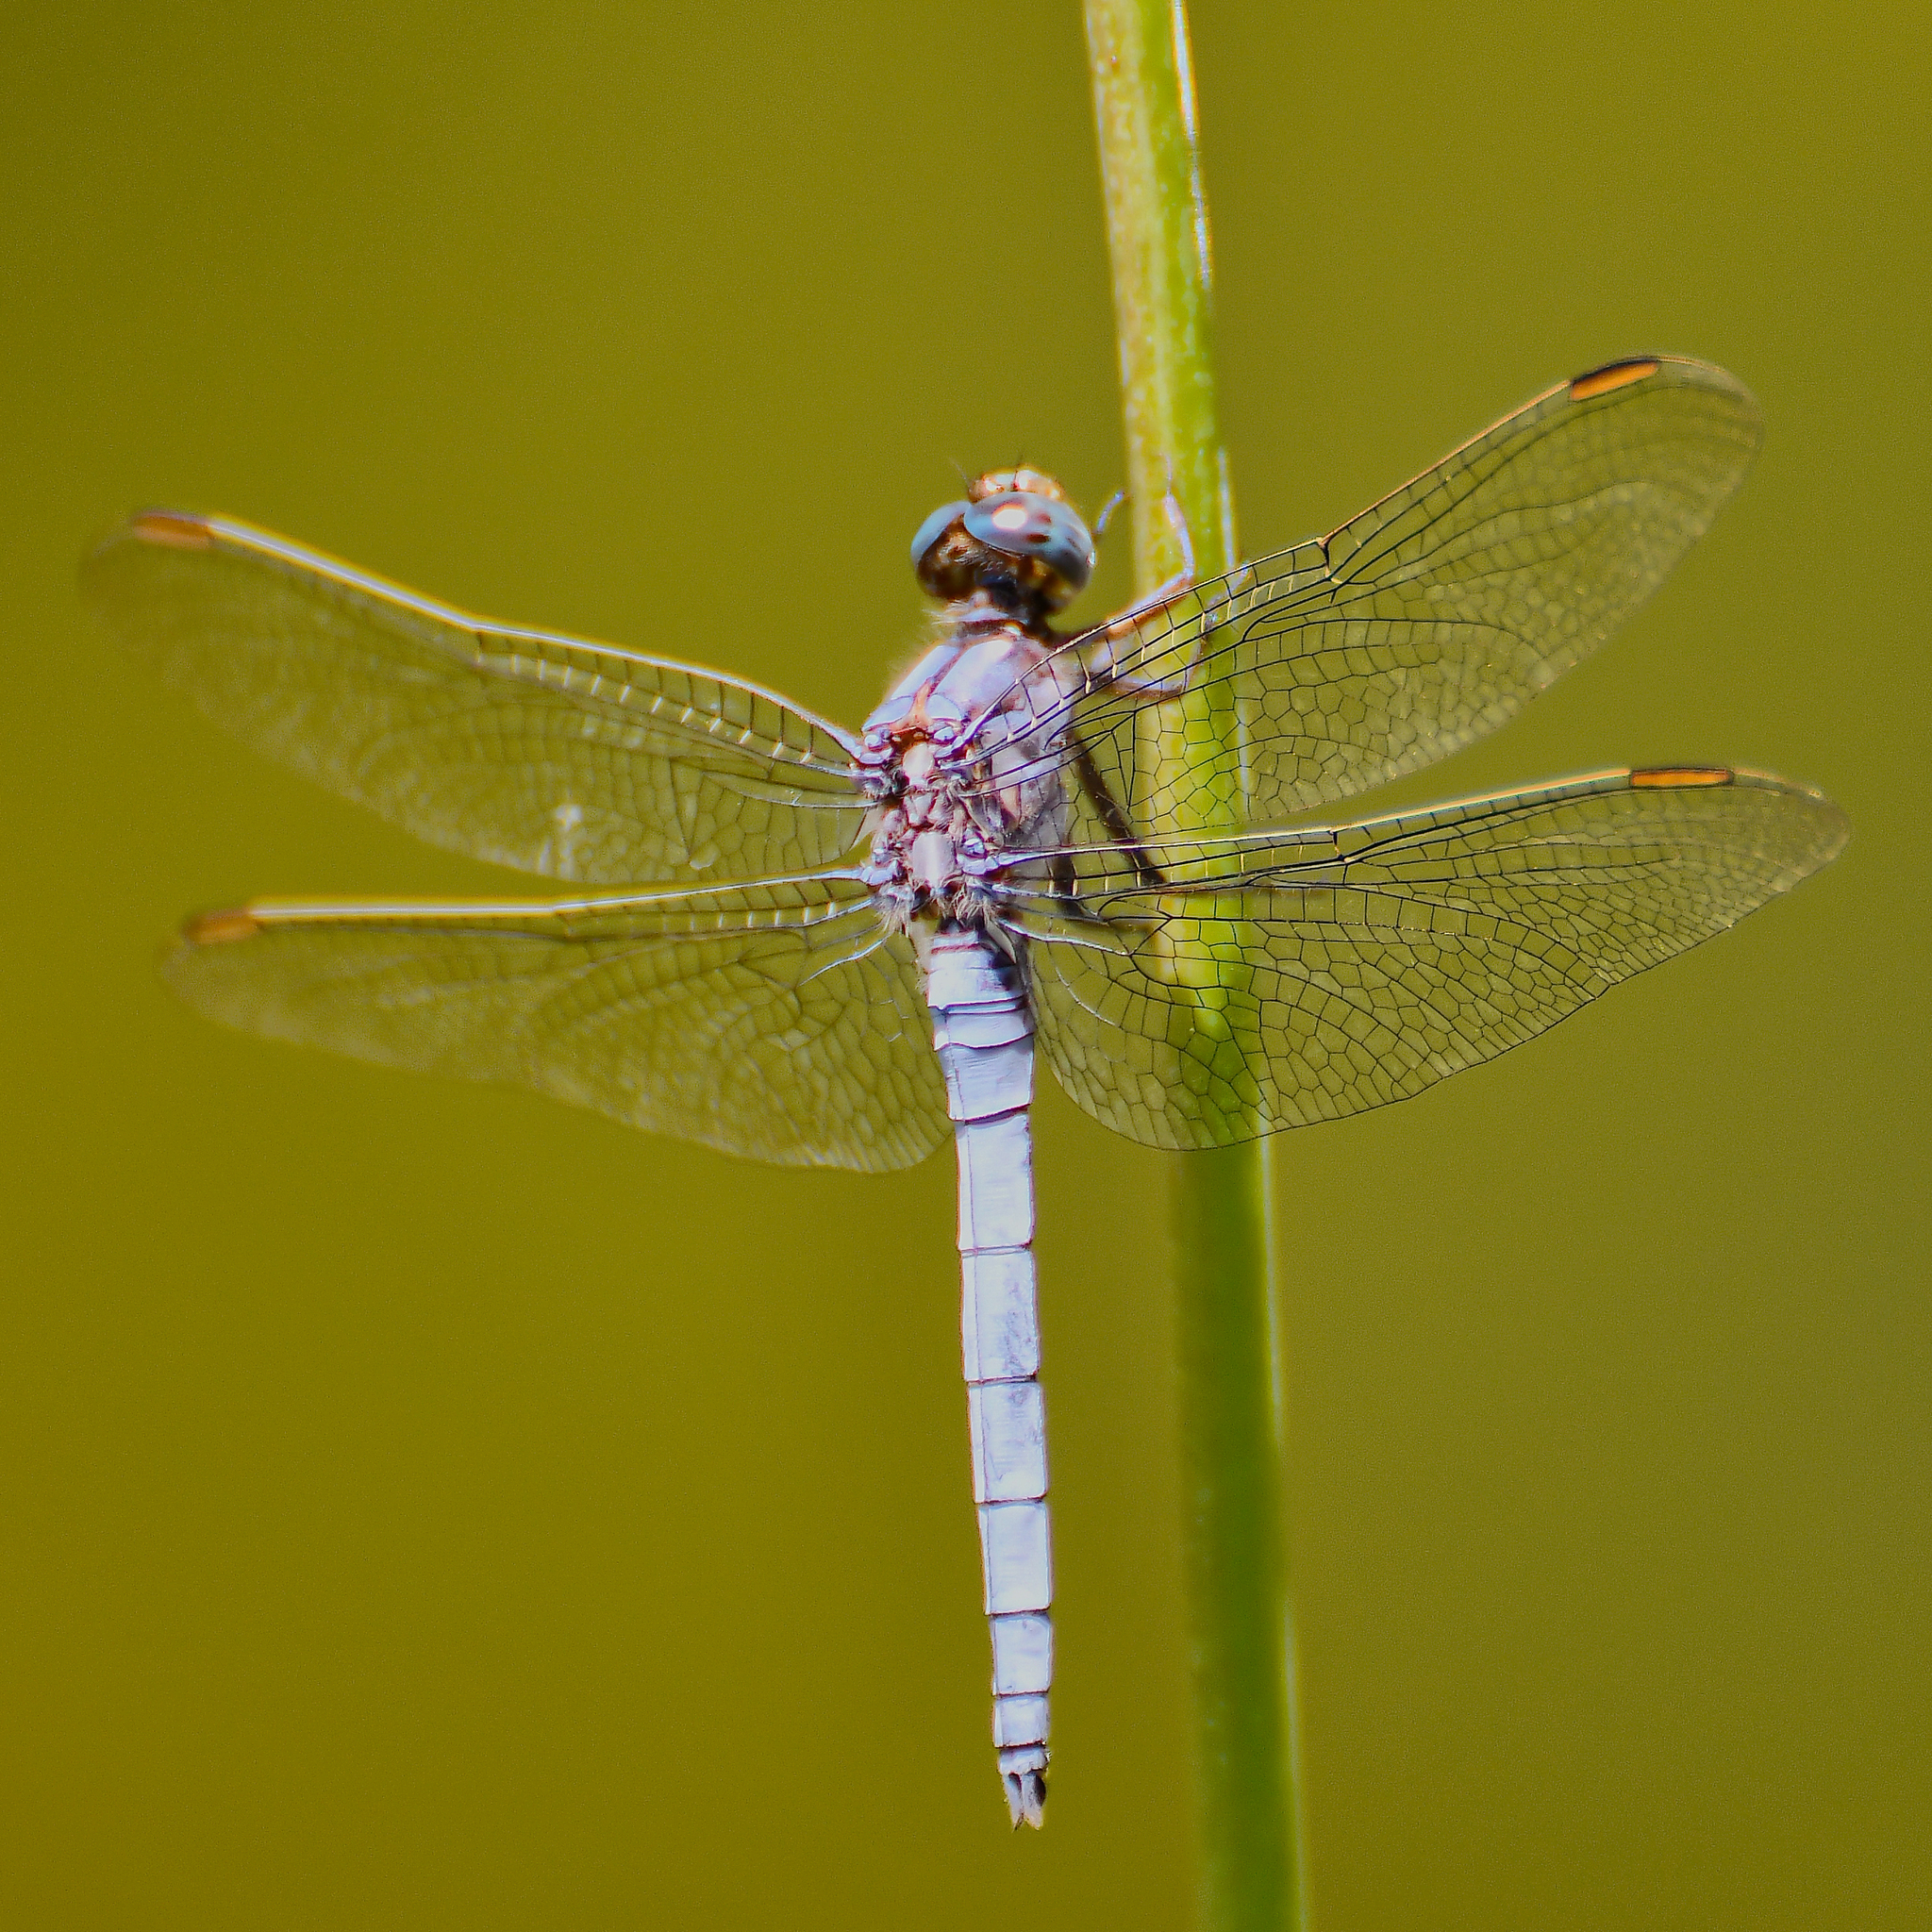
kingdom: Animalia
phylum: Arthropoda
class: Insecta
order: Odonata
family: Libellulidae
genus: Orthetrum
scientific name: Orthetrum coerulescens
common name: Keeled skimmer
